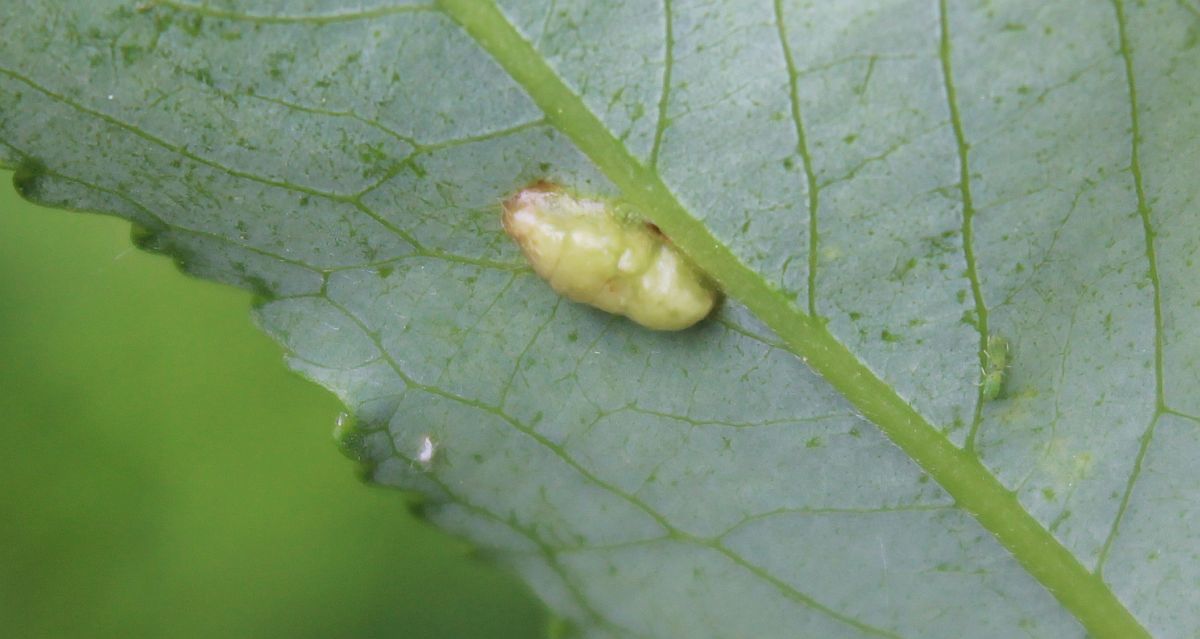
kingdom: Animalia
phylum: Arthropoda
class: Insecta
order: Hymenoptera
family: Tenthredinidae
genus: Pontania
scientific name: Pontania proxima
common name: Common sawfly
